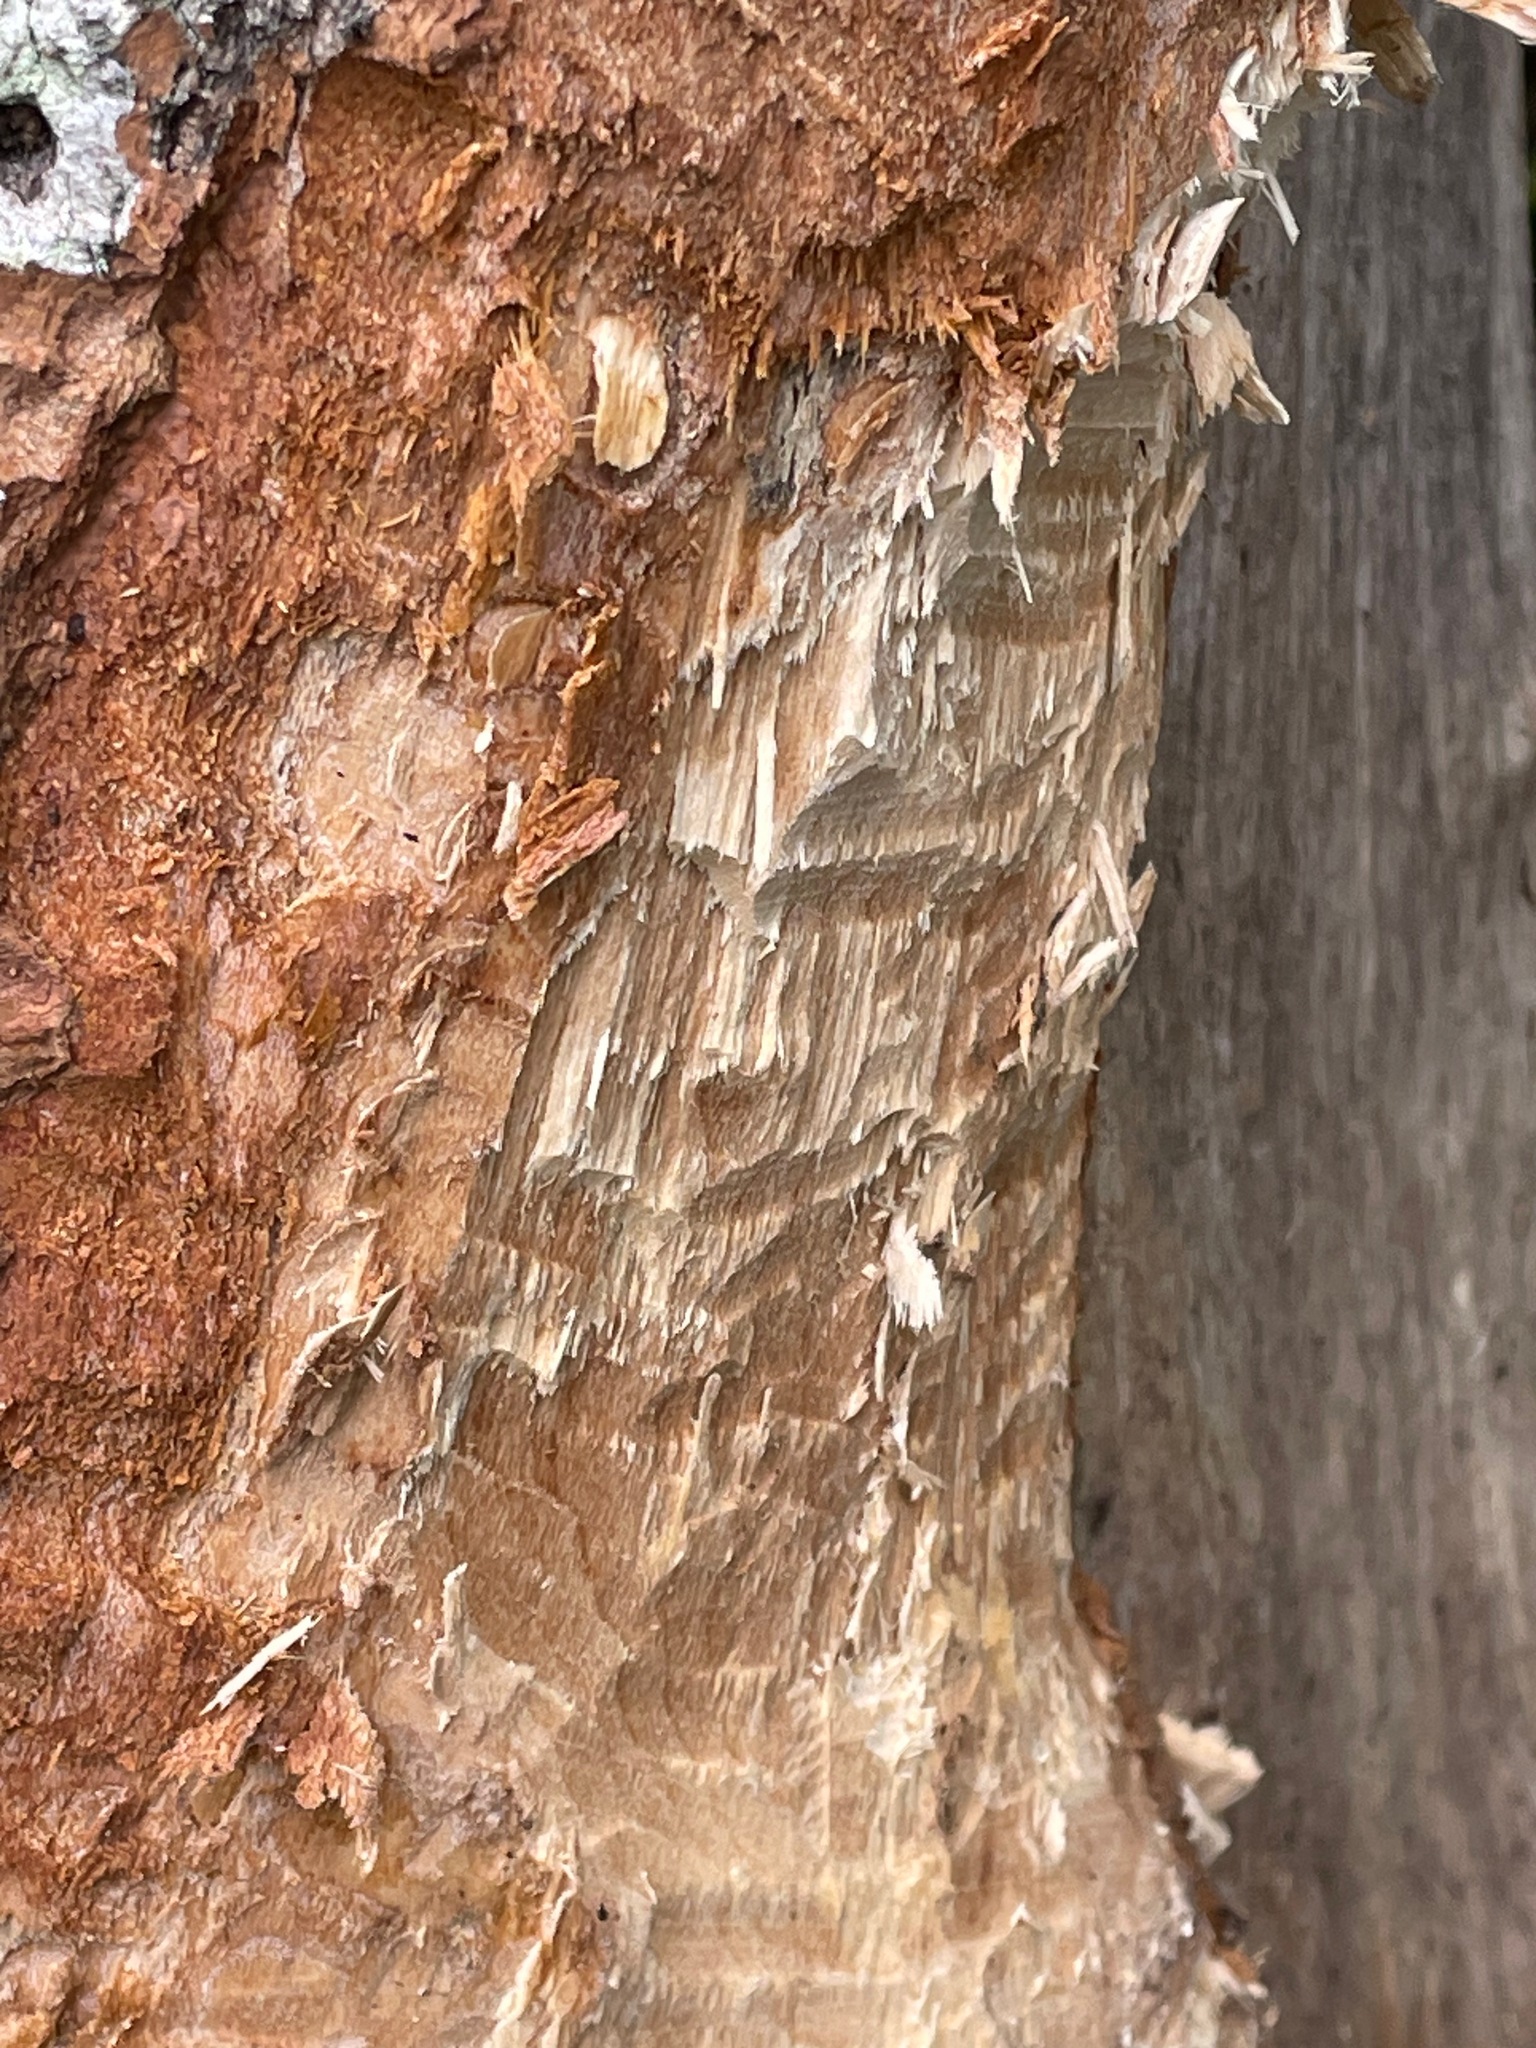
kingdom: Animalia
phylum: Chordata
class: Mammalia
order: Rodentia
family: Castoridae
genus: Castor
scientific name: Castor canadensis
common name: American beaver
